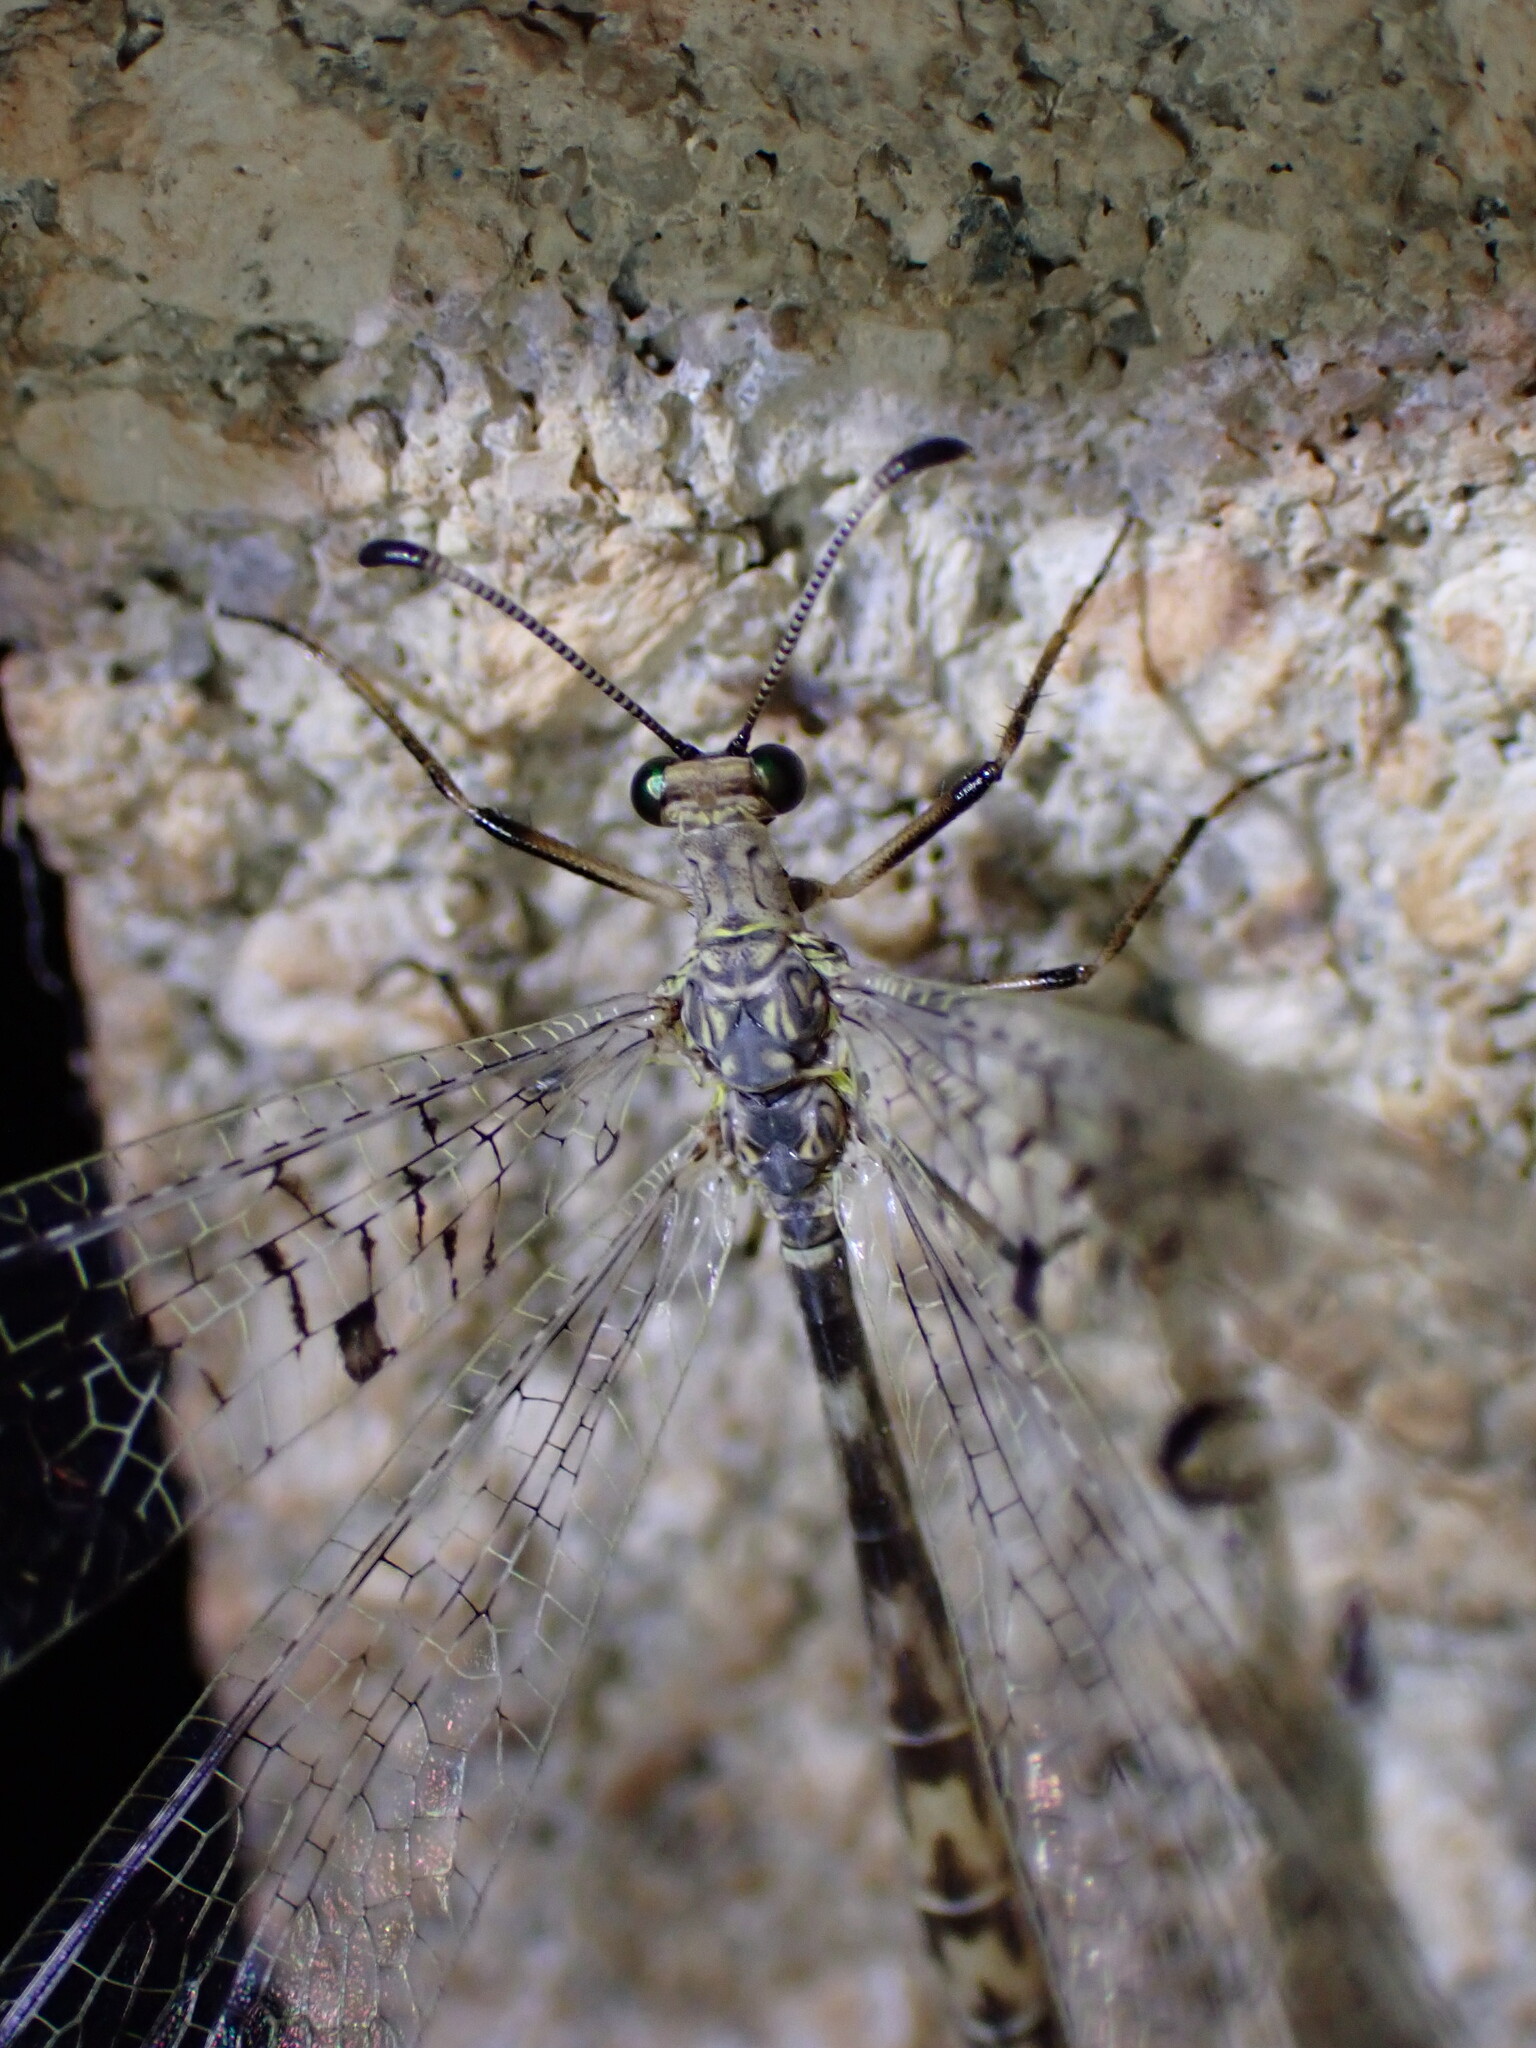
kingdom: Animalia
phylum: Arthropoda
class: Insecta
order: Neuroptera
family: Myrmeleontidae
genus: Dendroleon
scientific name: Dendroleon speciosus
